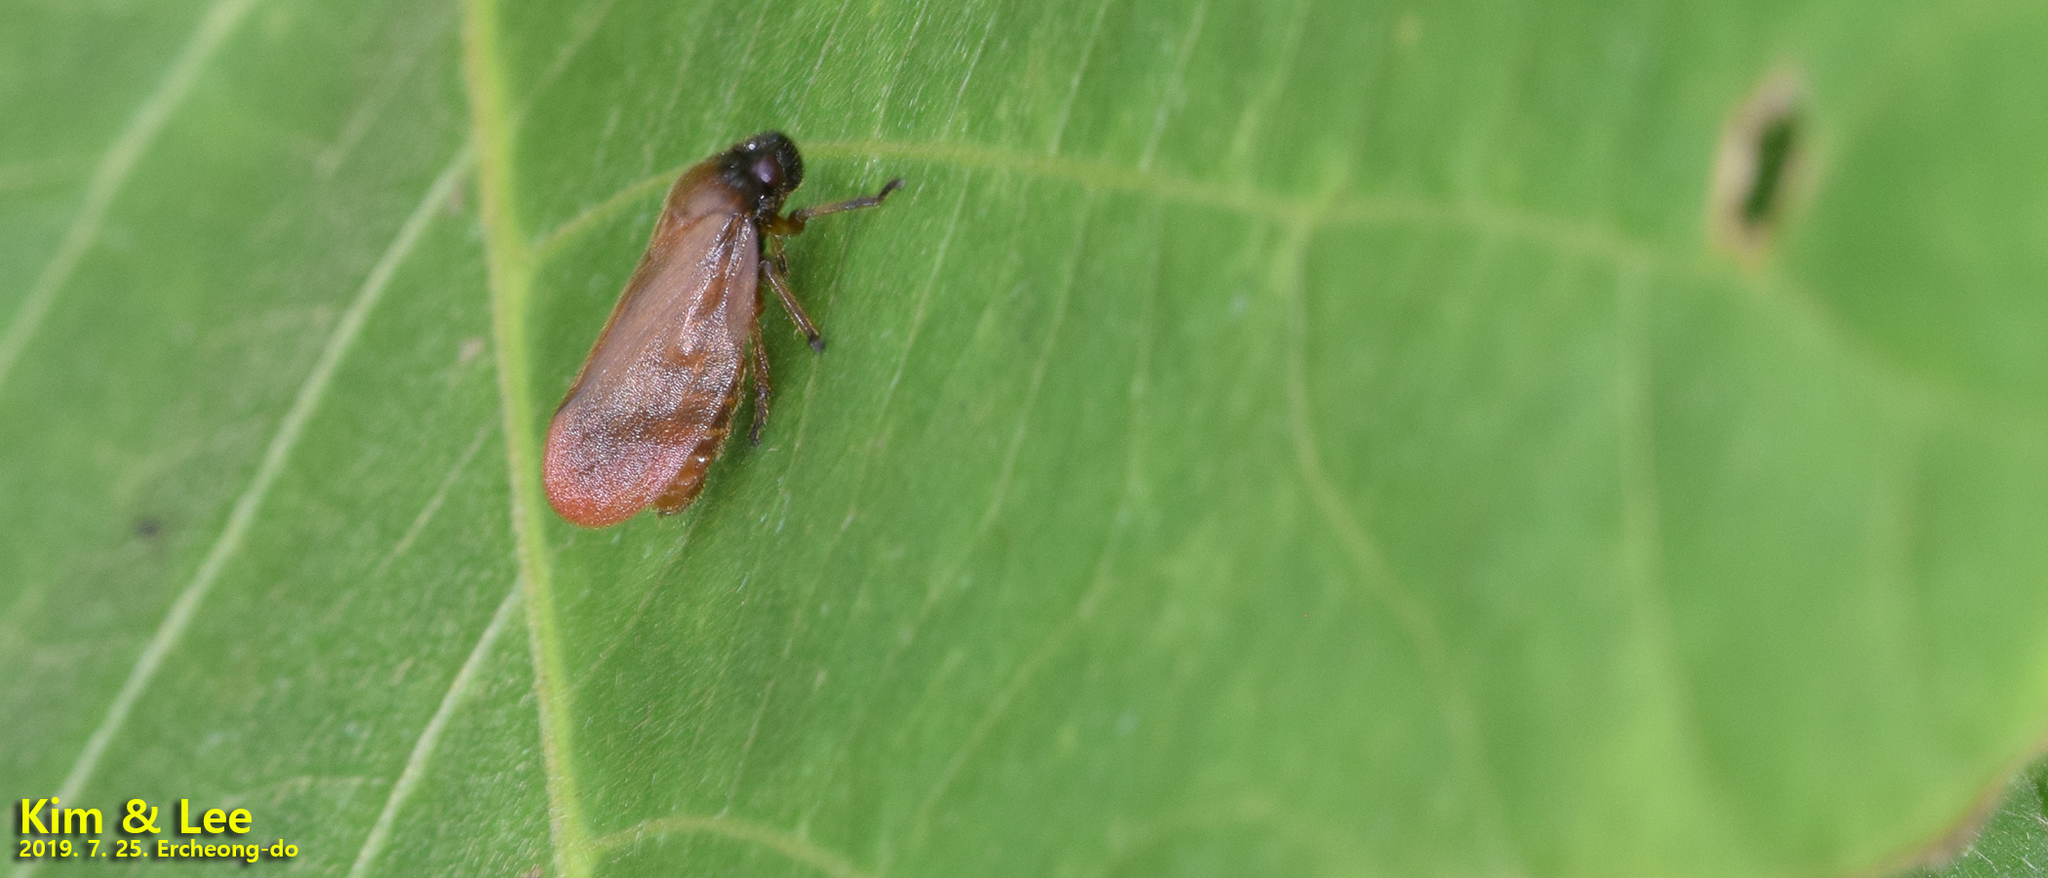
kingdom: Animalia
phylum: Arthropoda
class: Insecta
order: Hemiptera
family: Cercopidae
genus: Eoscarta
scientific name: Eoscarta assimilis
